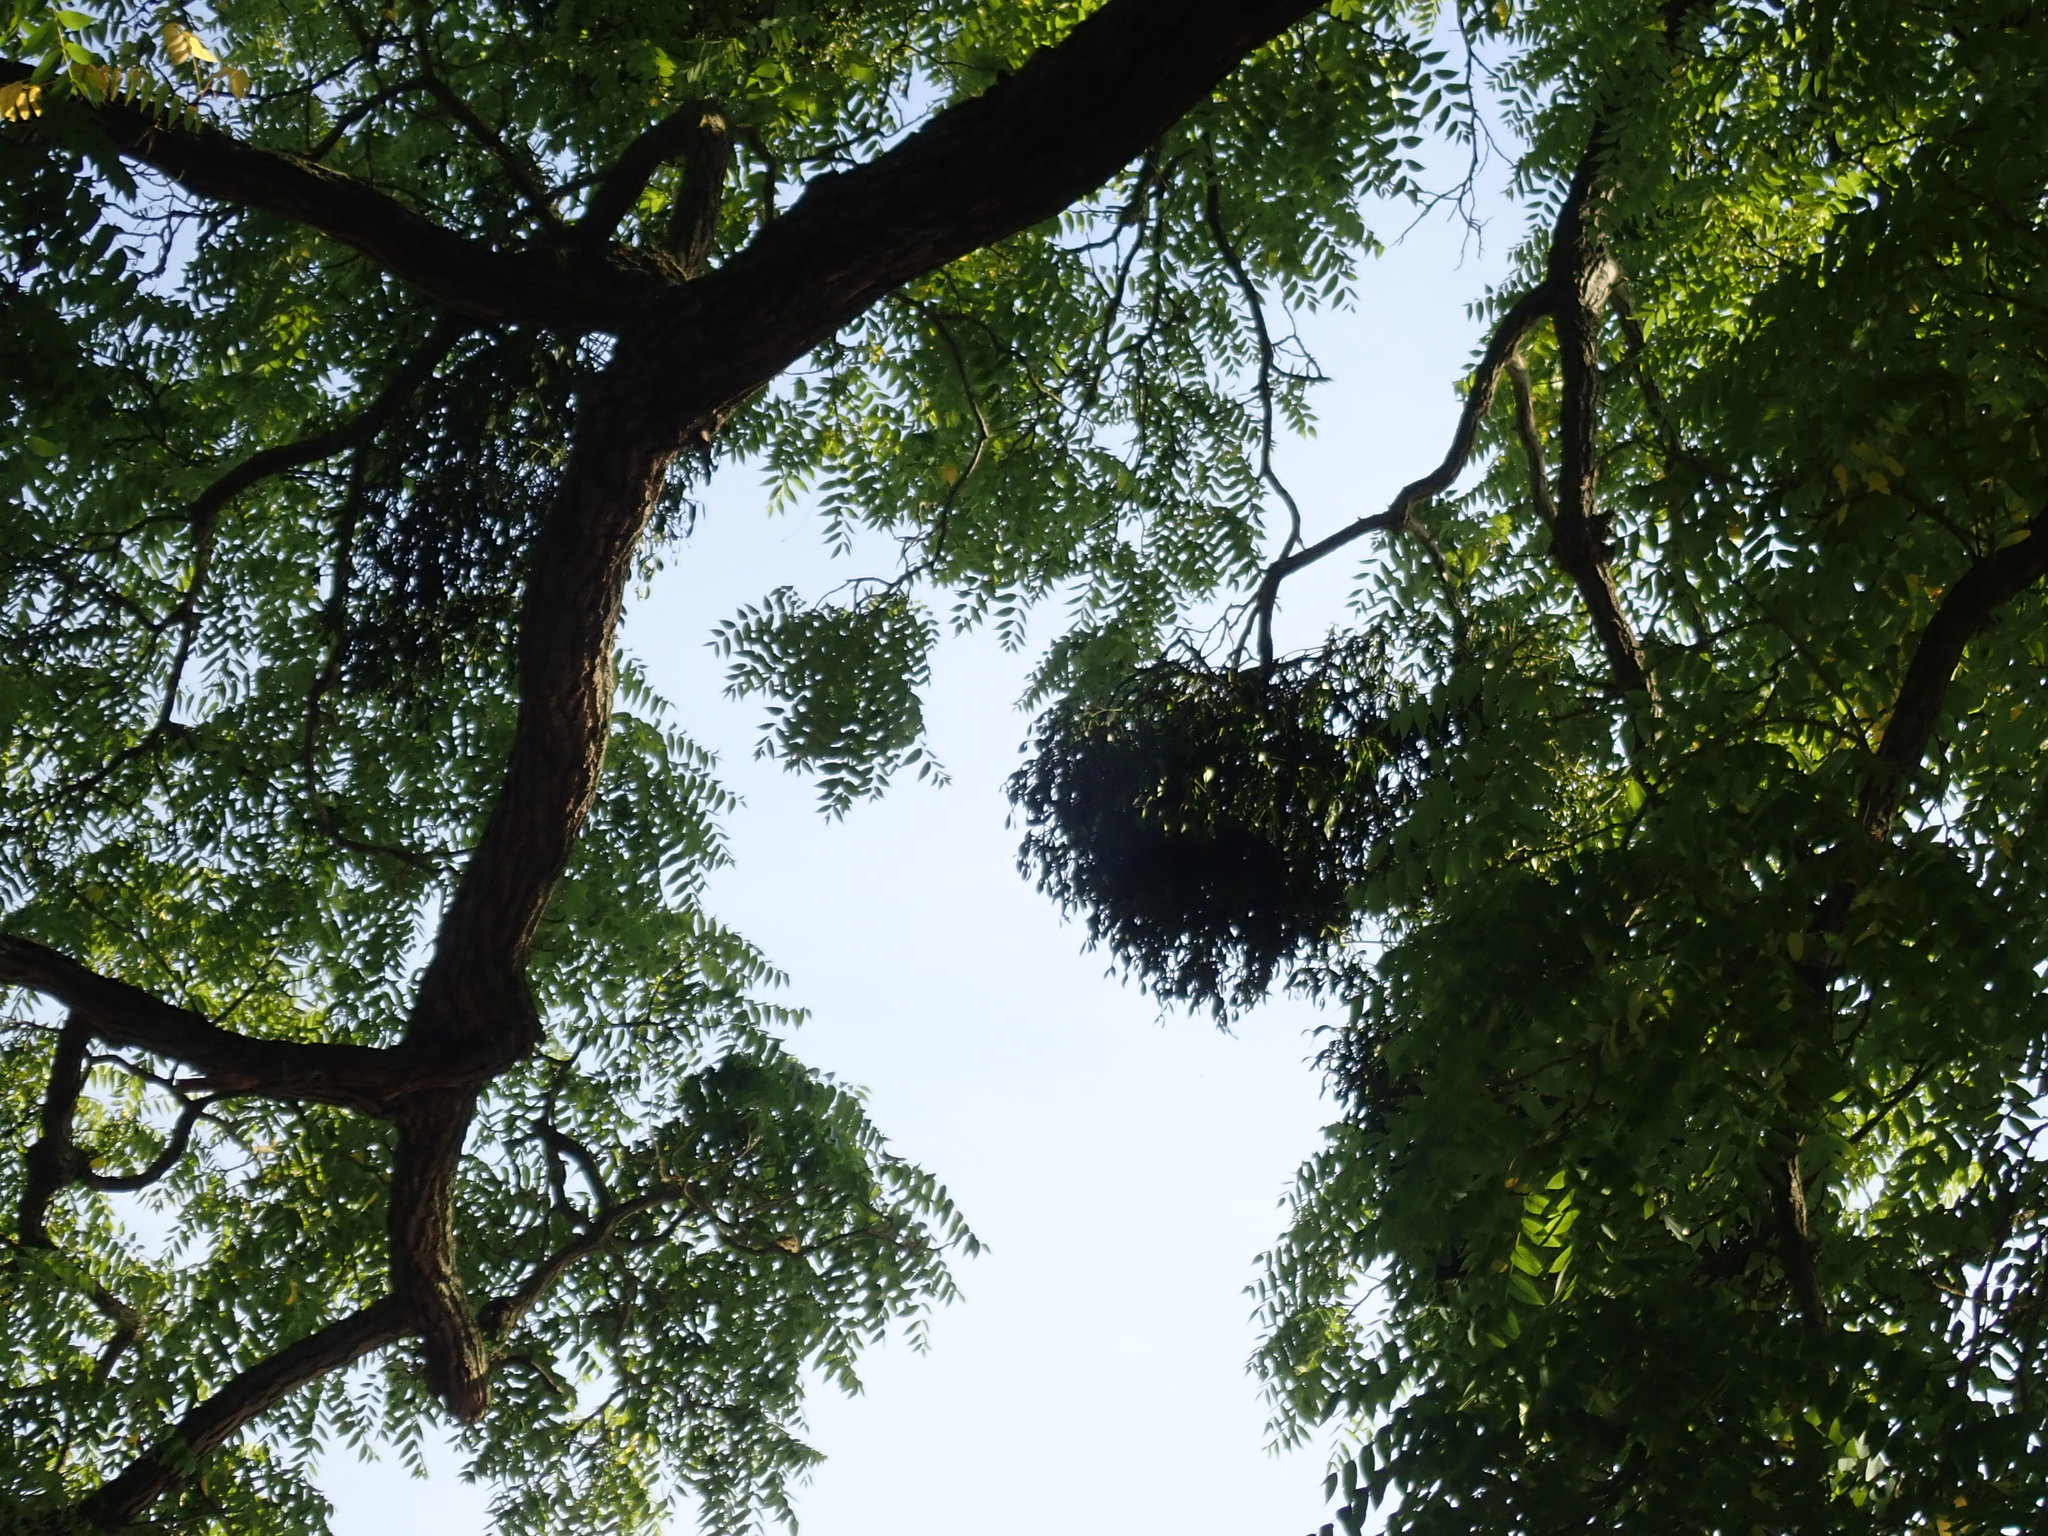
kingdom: Plantae
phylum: Tracheophyta
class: Magnoliopsida
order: Santalales
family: Viscaceae
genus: Viscum
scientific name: Viscum album
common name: Mistletoe
